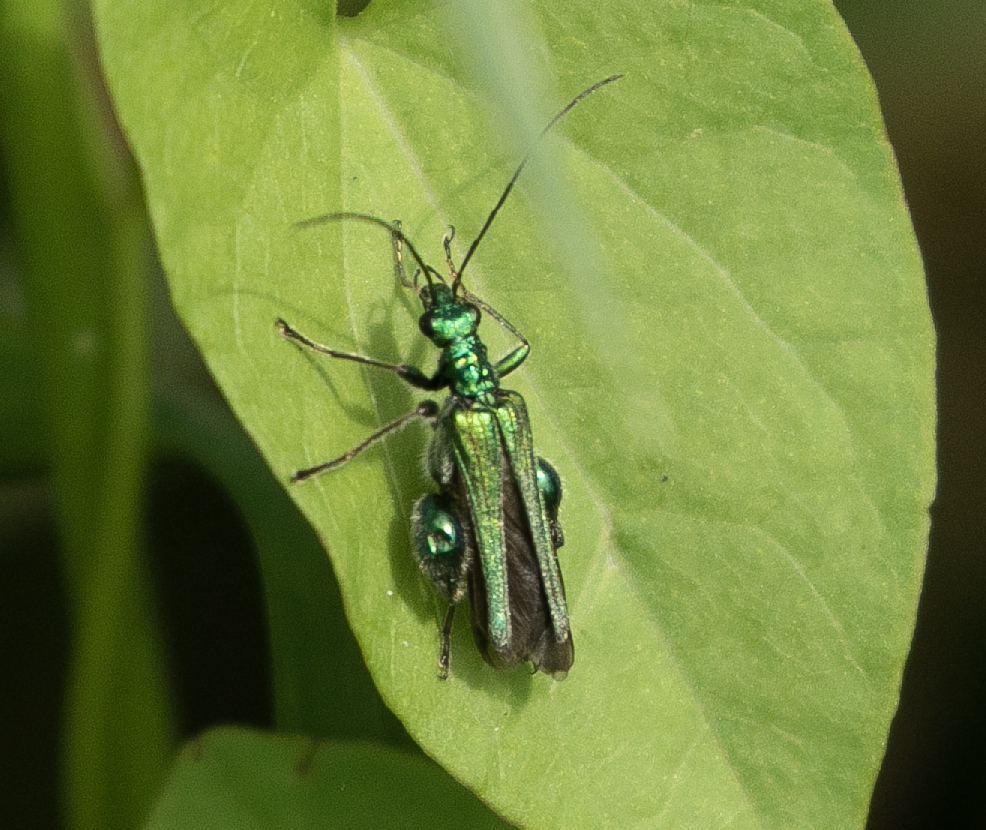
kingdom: Animalia
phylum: Arthropoda
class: Insecta
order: Coleoptera
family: Oedemeridae
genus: Oedemera
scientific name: Oedemera nobilis
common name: Swollen-thighed beetle
